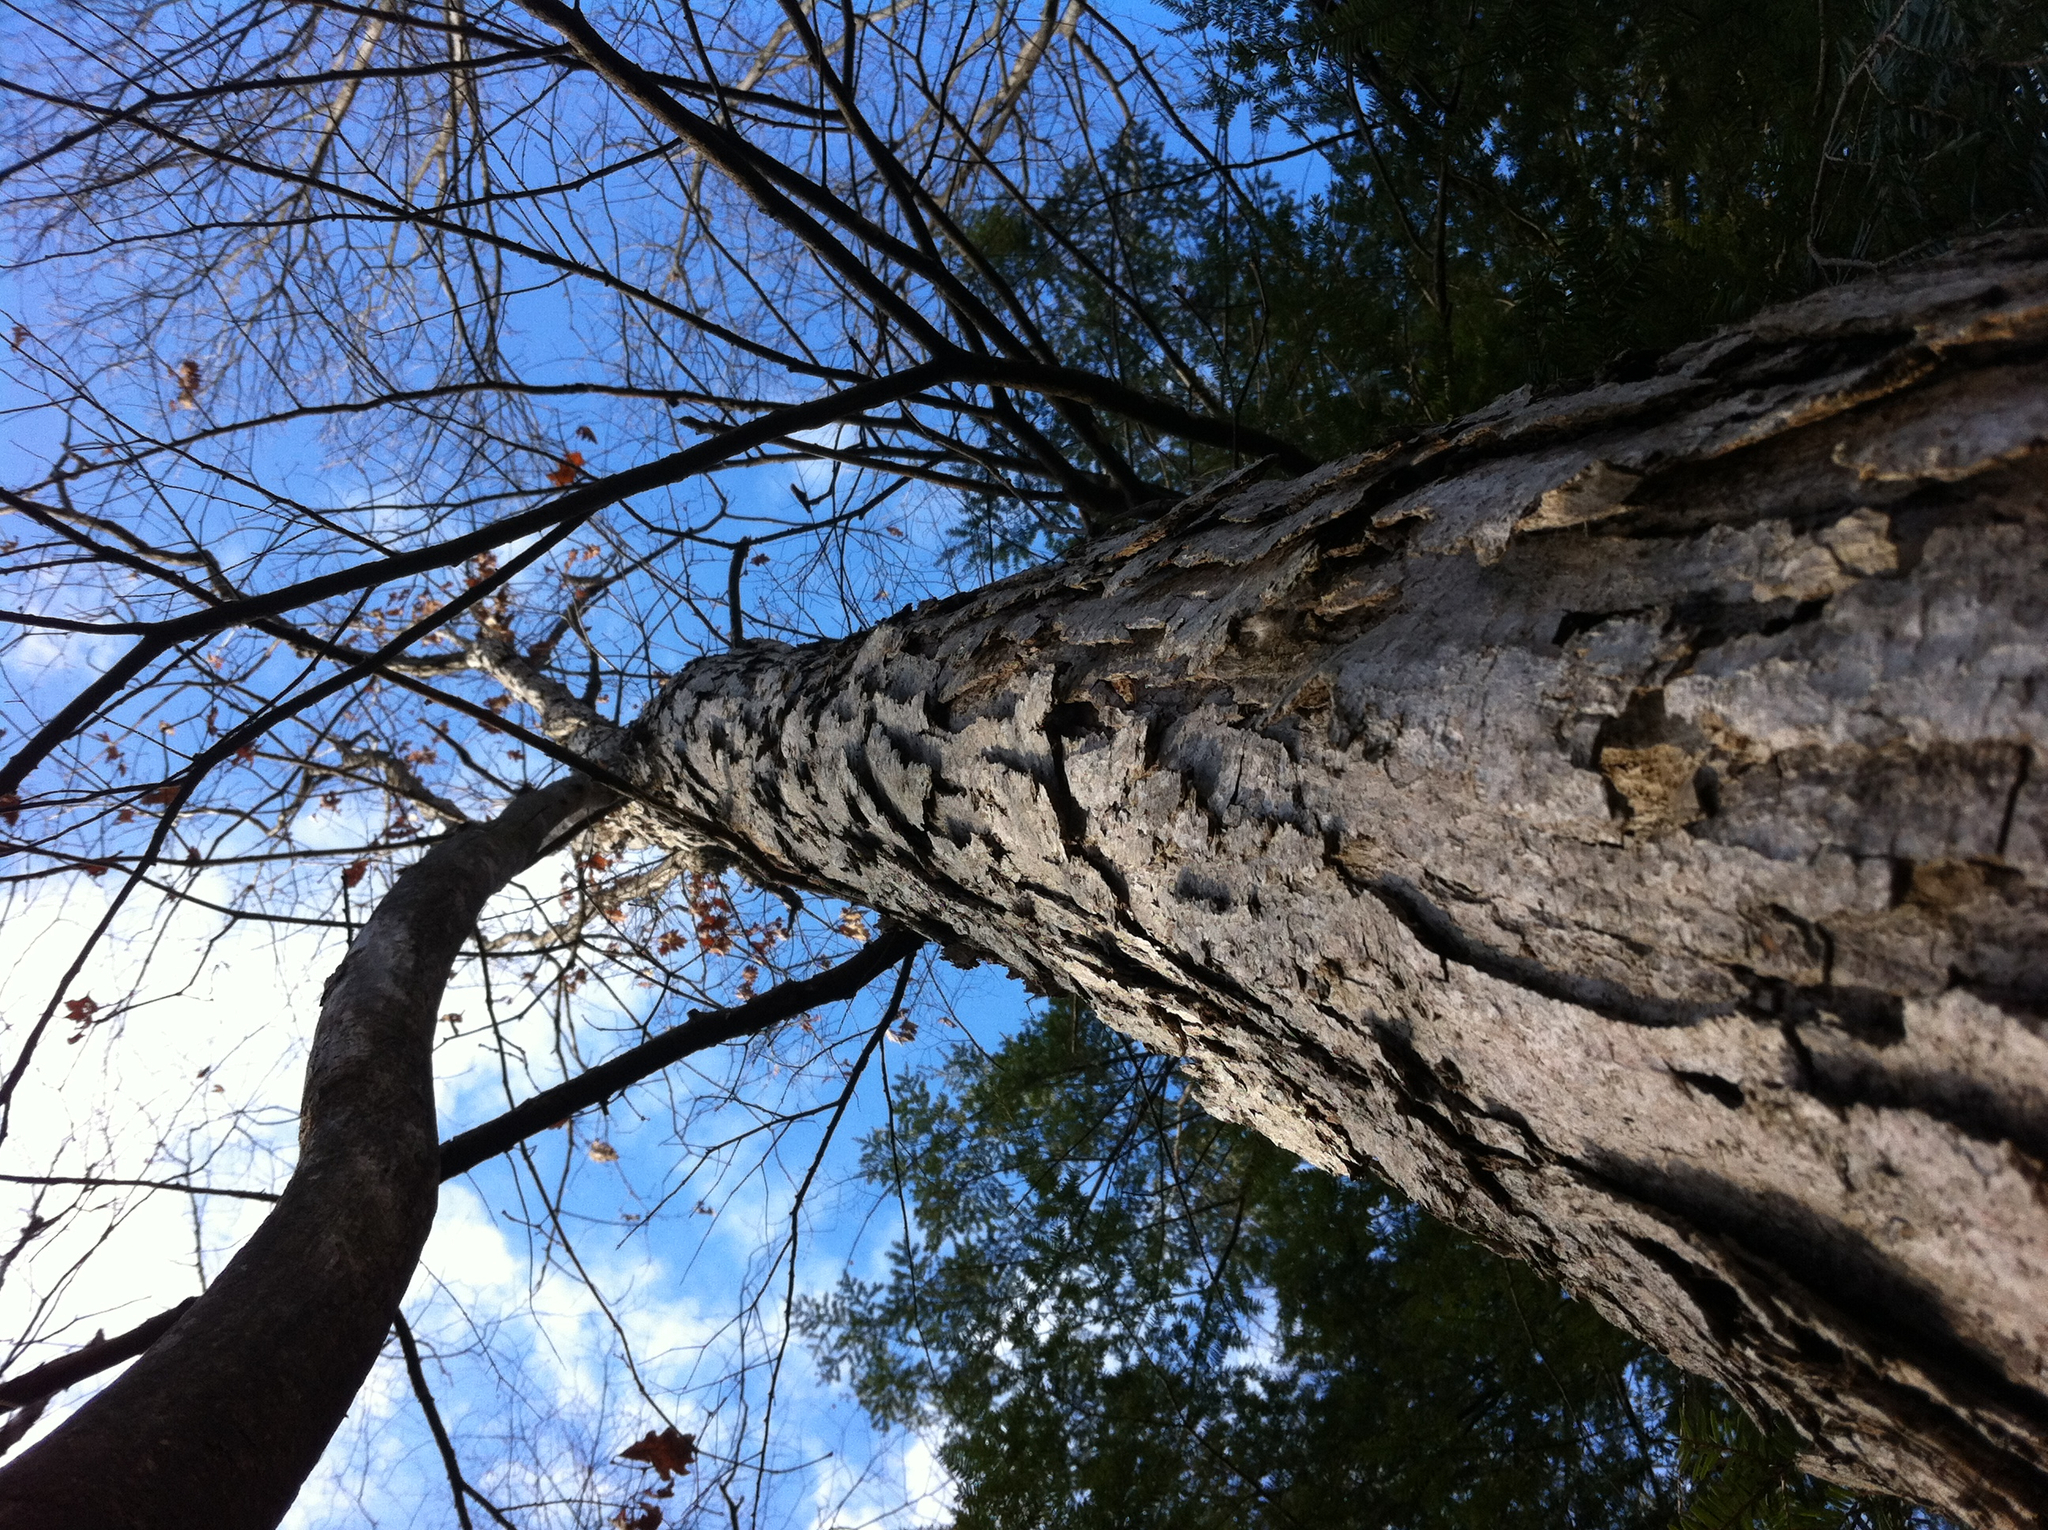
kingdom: Plantae
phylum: Tracheophyta
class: Magnoliopsida
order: Fagales
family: Fagaceae
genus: Quercus
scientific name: Quercus alba
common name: White oak
